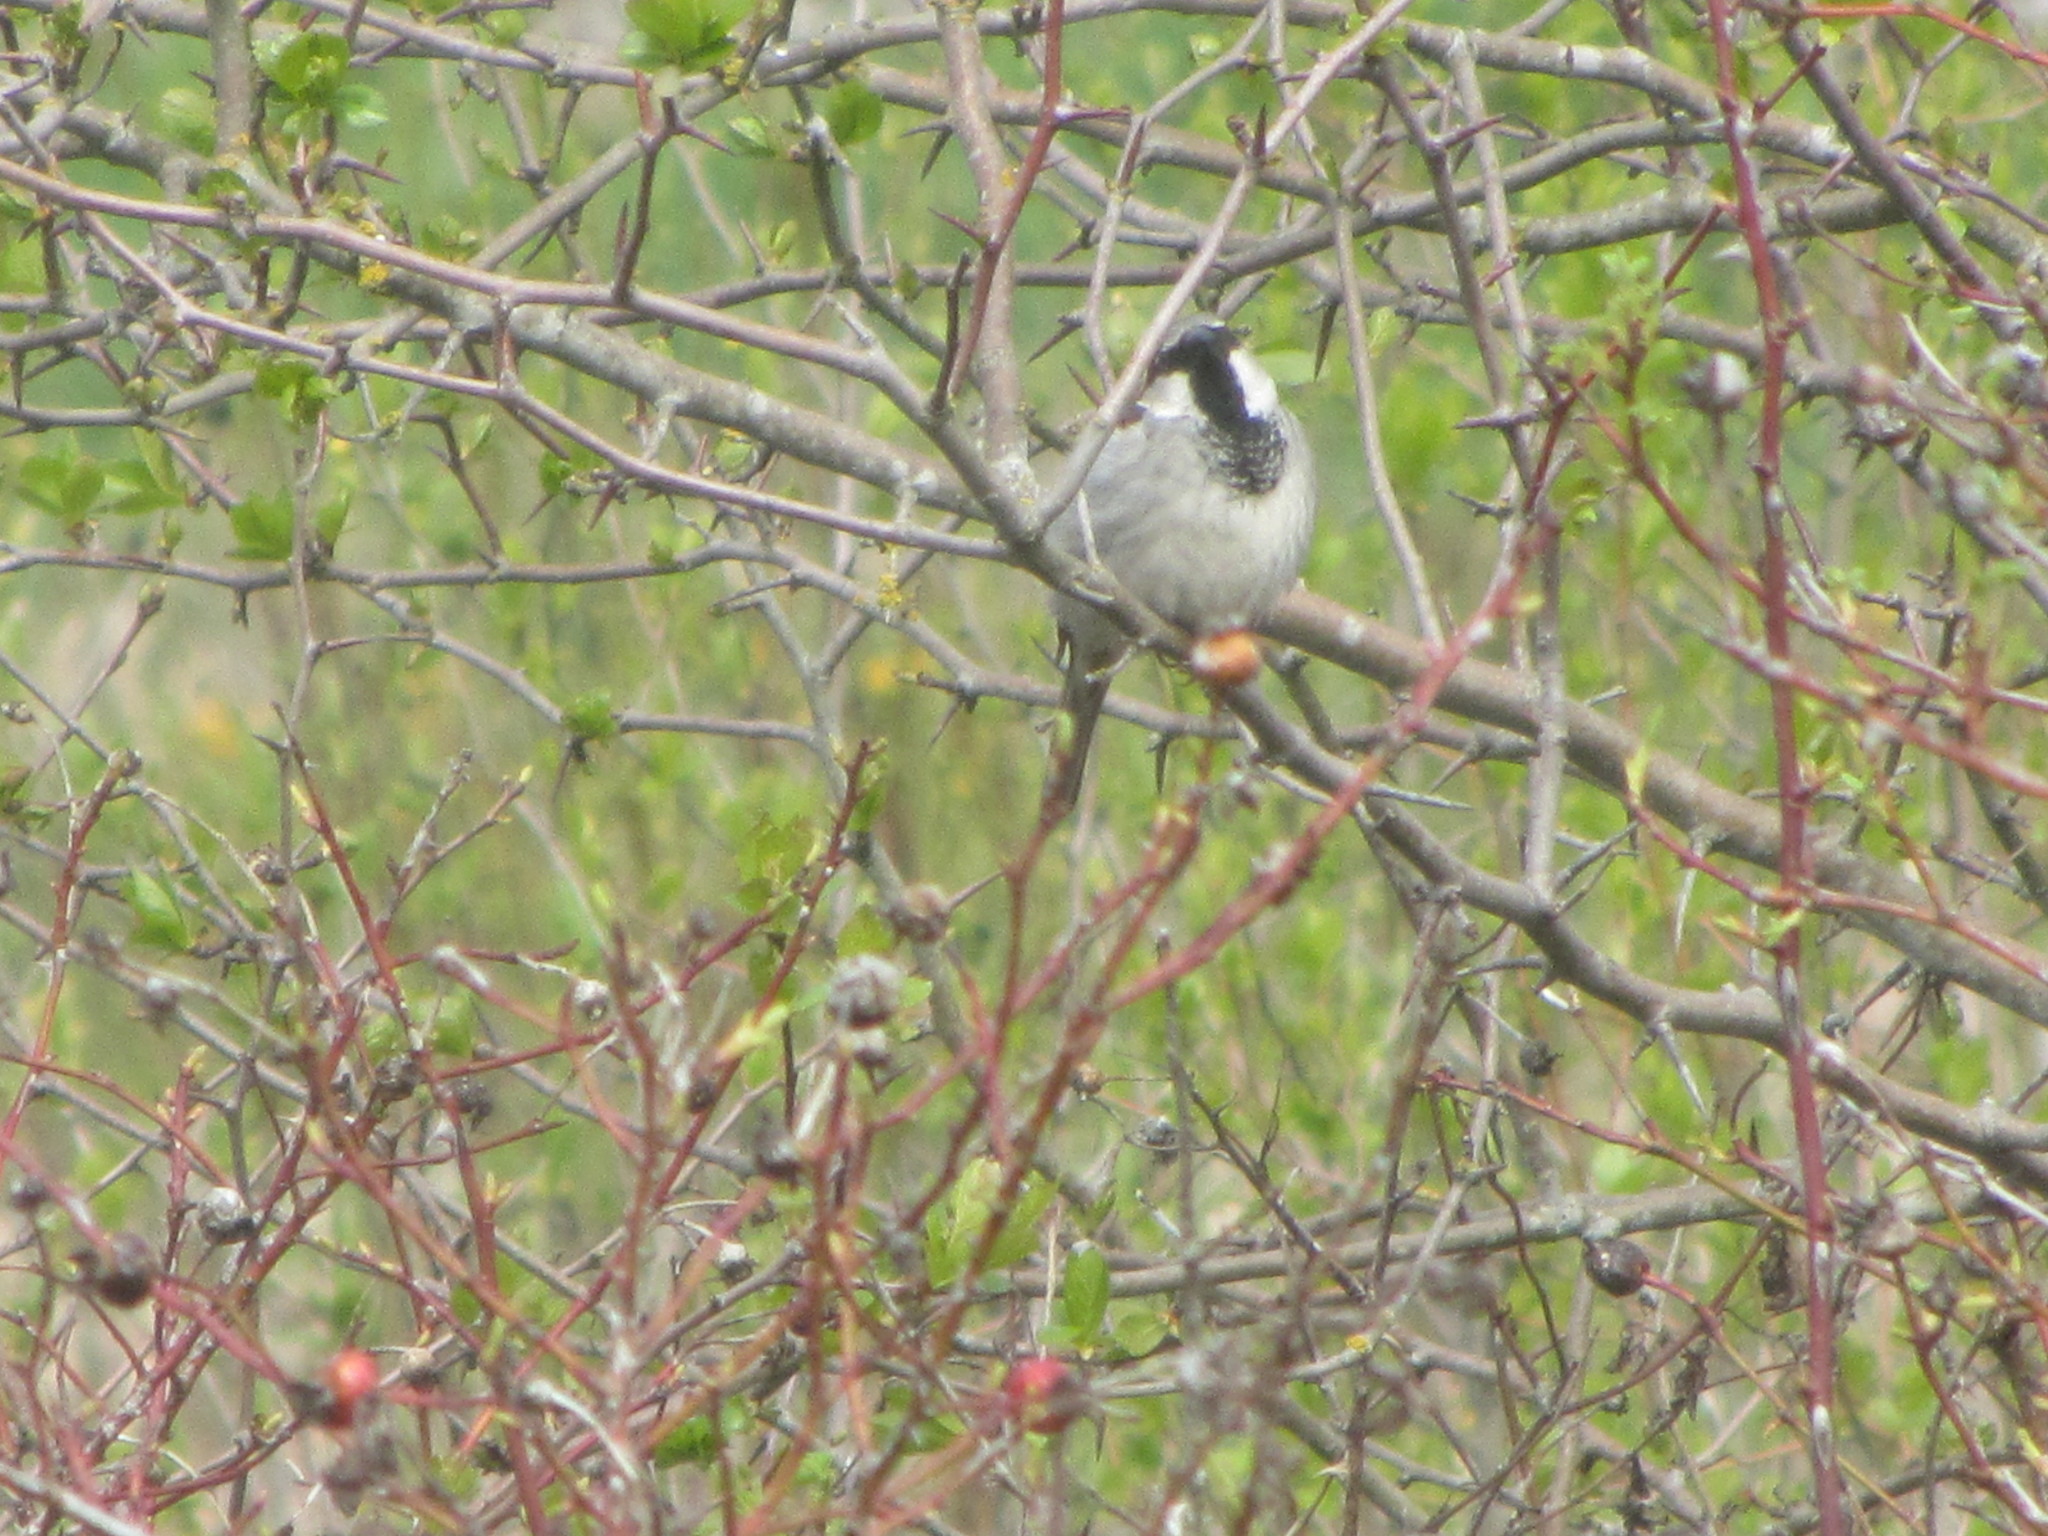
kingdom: Animalia
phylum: Chordata
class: Aves
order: Passeriformes
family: Passeridae
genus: Passer
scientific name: Passer domesticus
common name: House sparrow
